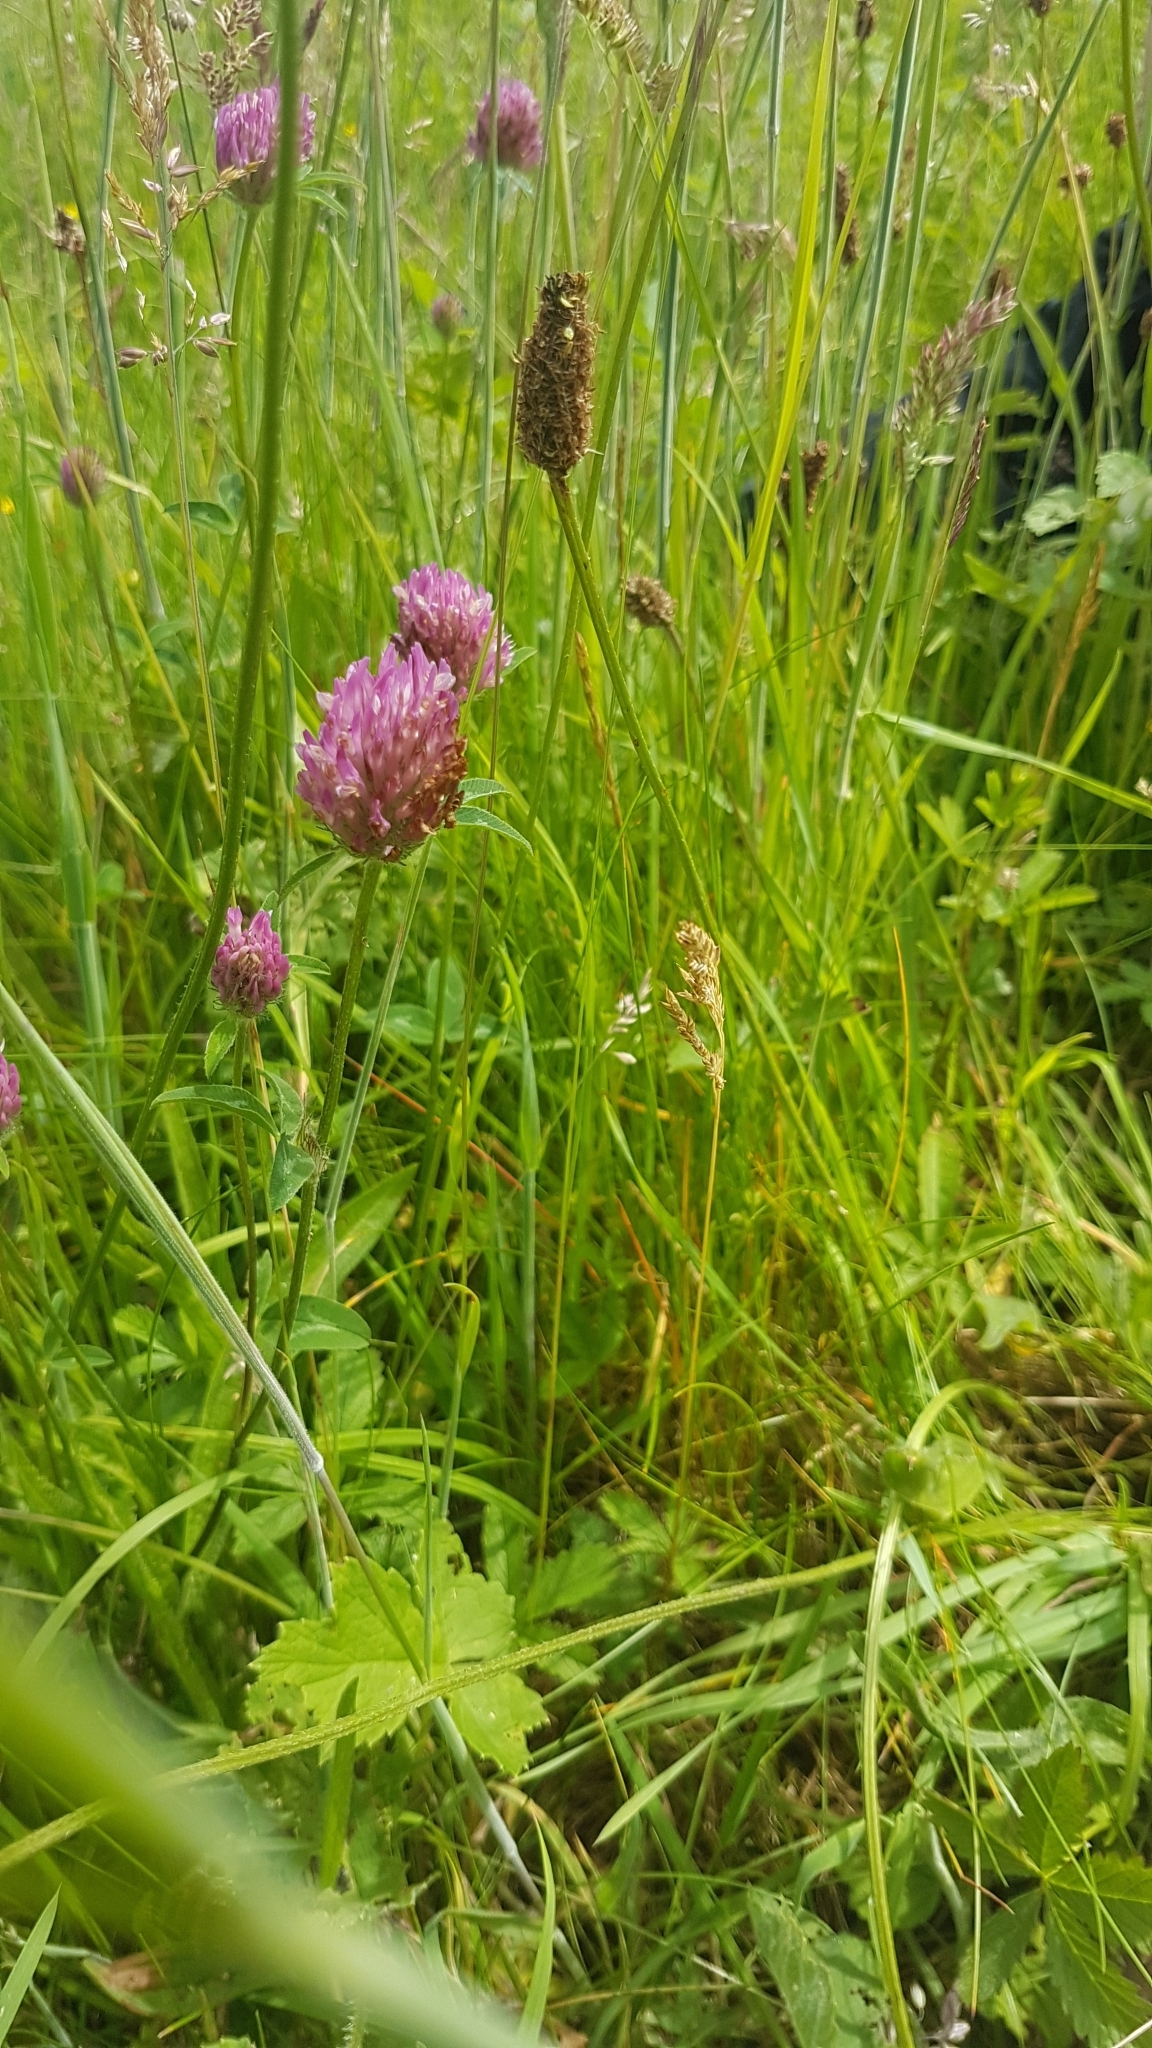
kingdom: Plantae
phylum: Tracheophyta
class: Magnoliopsida
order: Fabales
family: Fabaceae
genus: Trifolium
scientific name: Trifolium pratense
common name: Red clover
